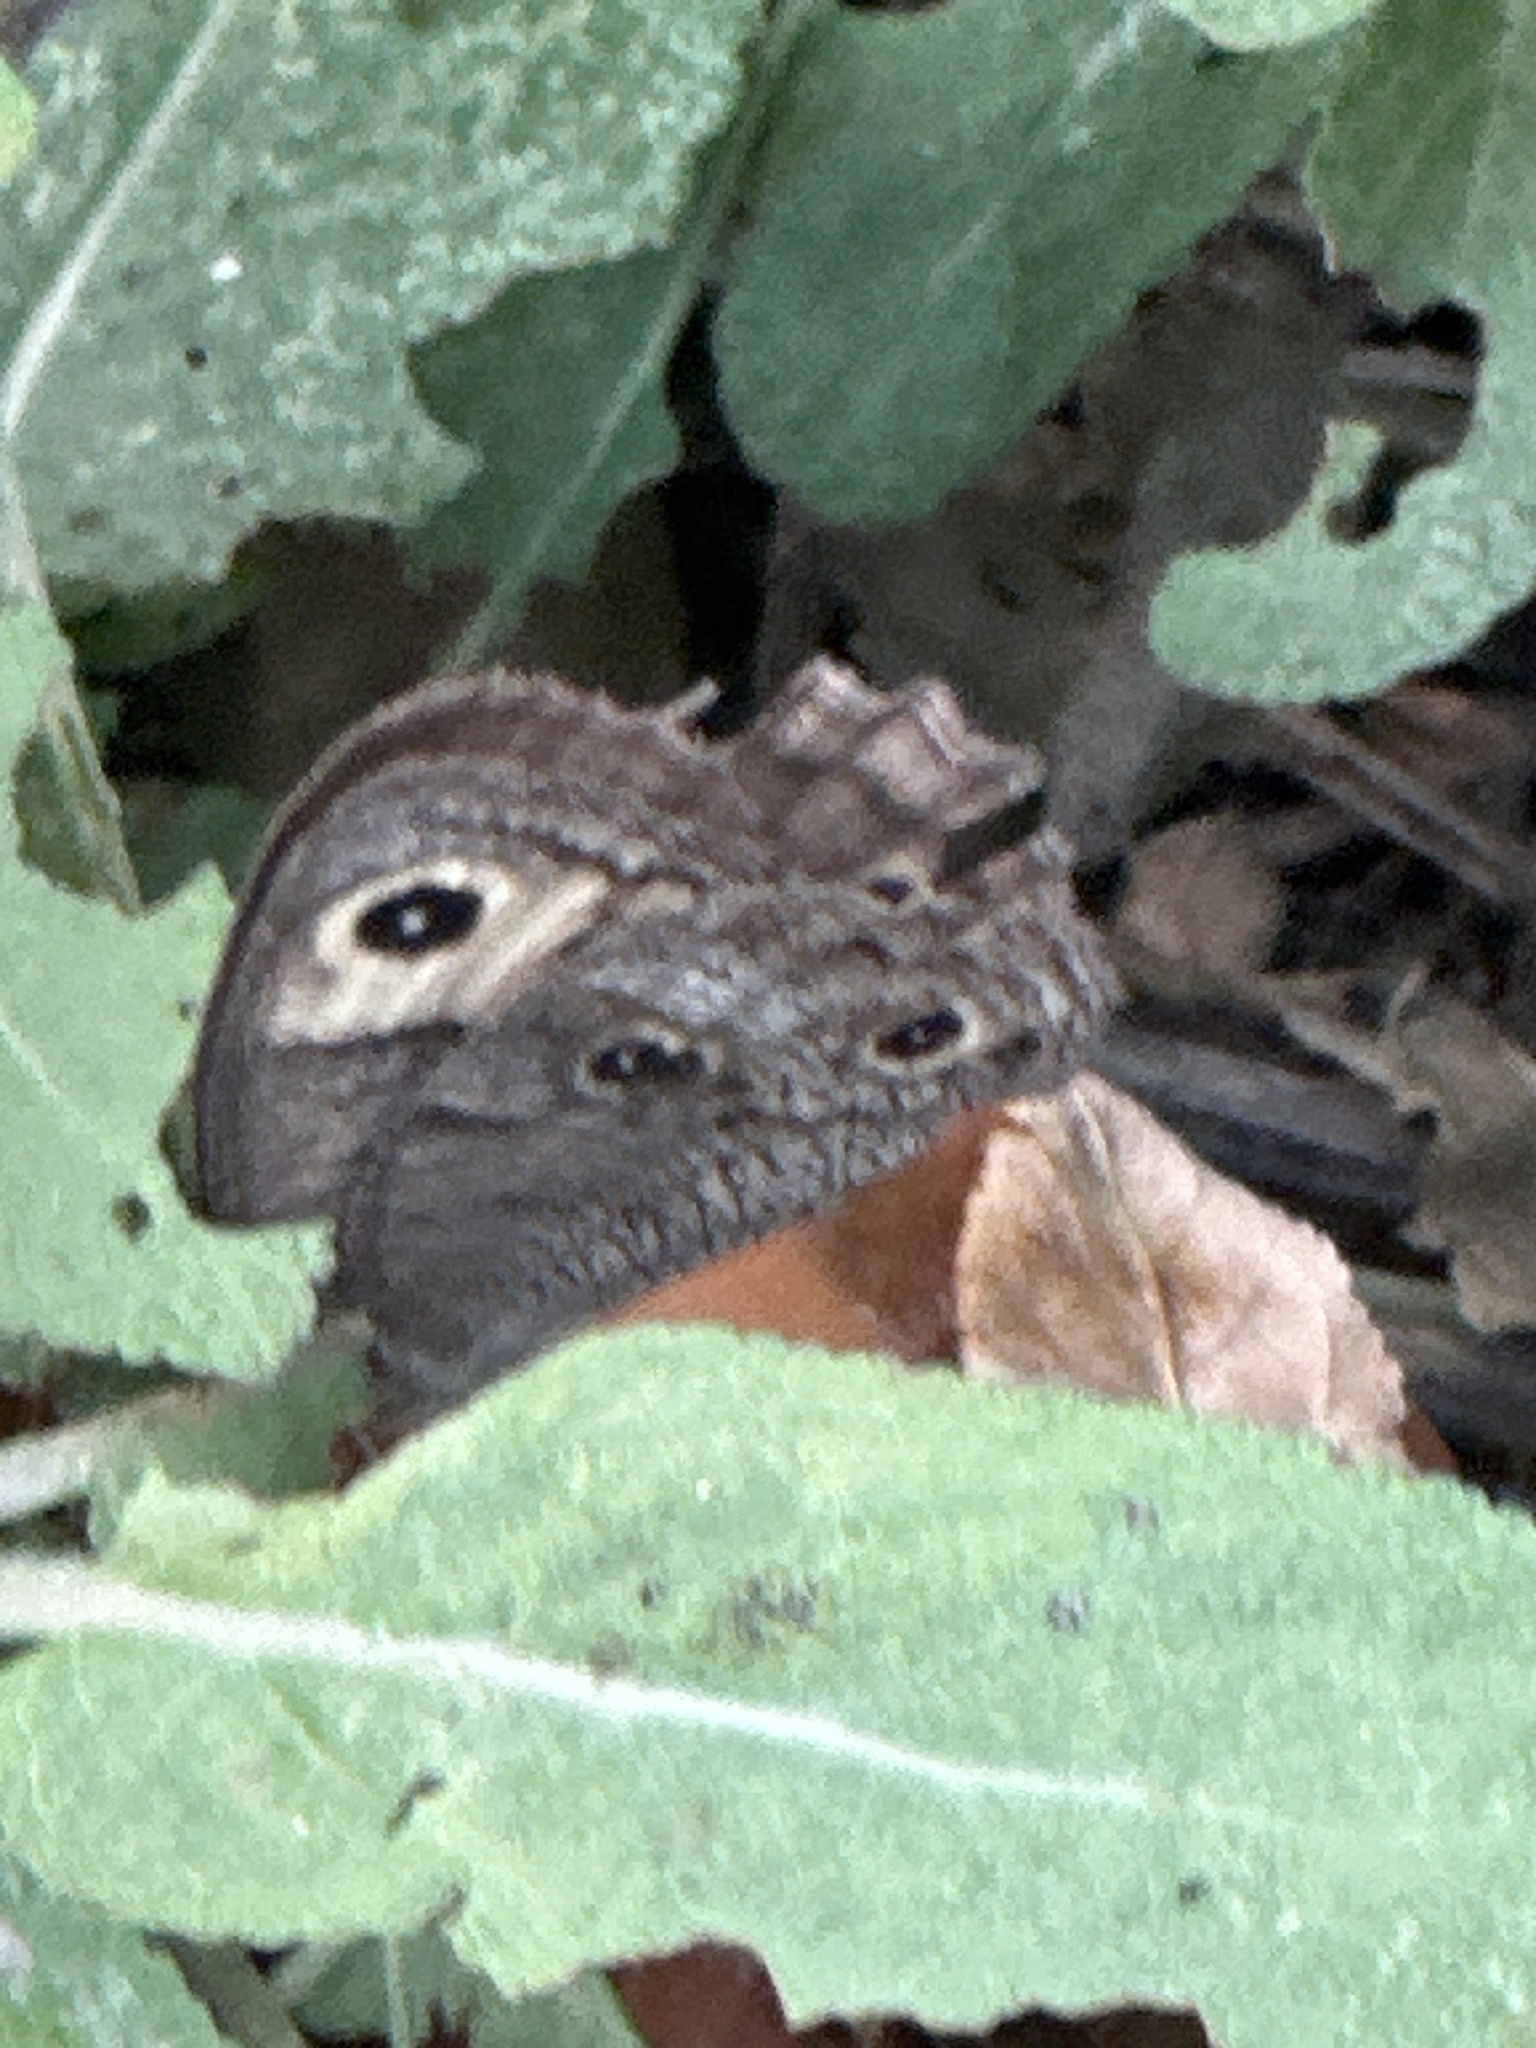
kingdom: Animalia
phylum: Arthropoda
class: Insecta
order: Lepidoptera
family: Nymphalidae
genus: Cercyonis
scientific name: Cercyonis pegala
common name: Common wood-nymph
